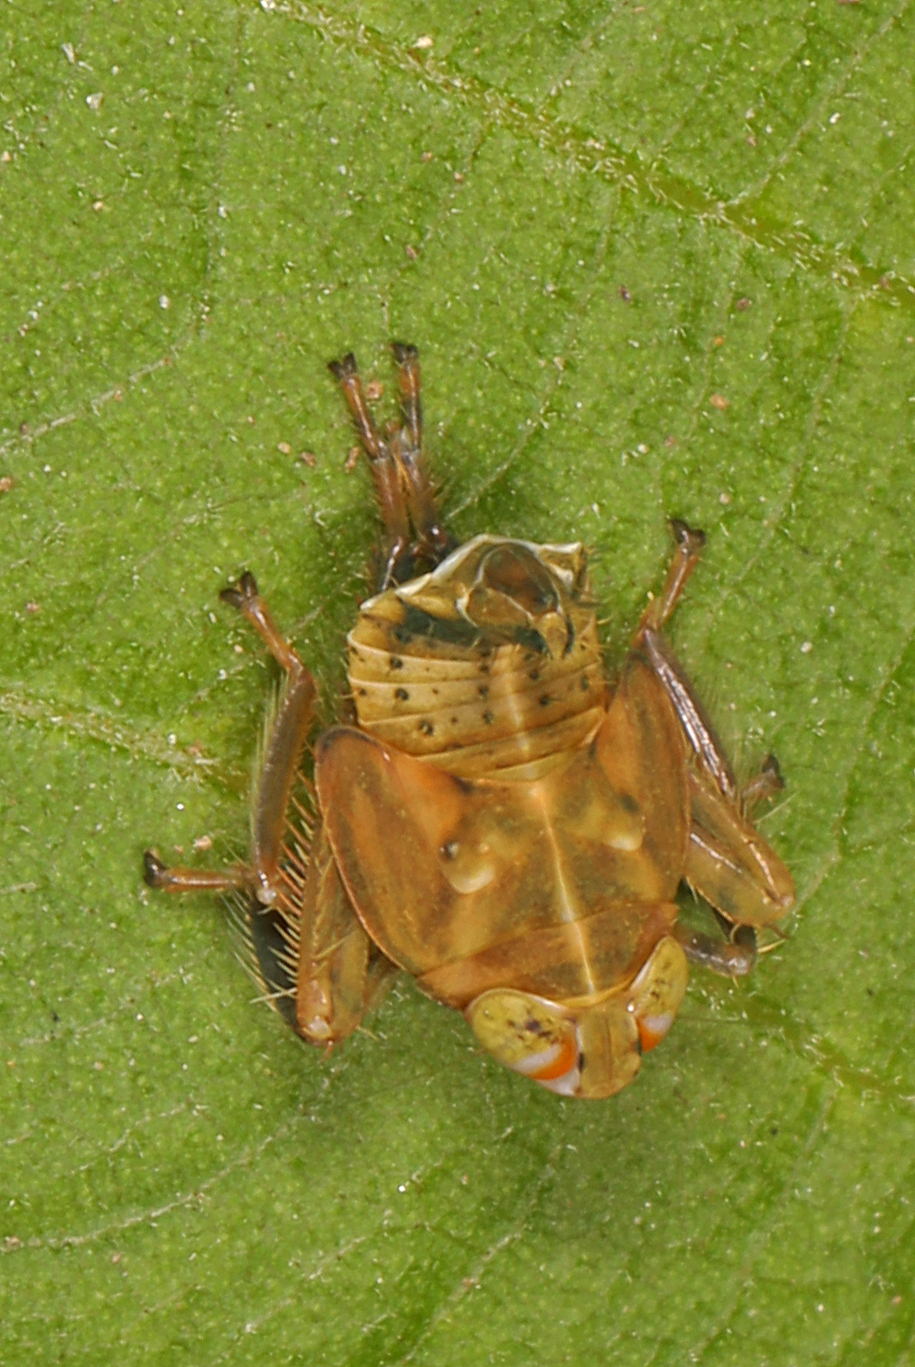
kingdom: Animalia
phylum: Arthropoda
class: Insecta
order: Hemiptera
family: Cicadellidae
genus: Jikradia
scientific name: Jikradia olitoria
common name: Coppery leafhopper
